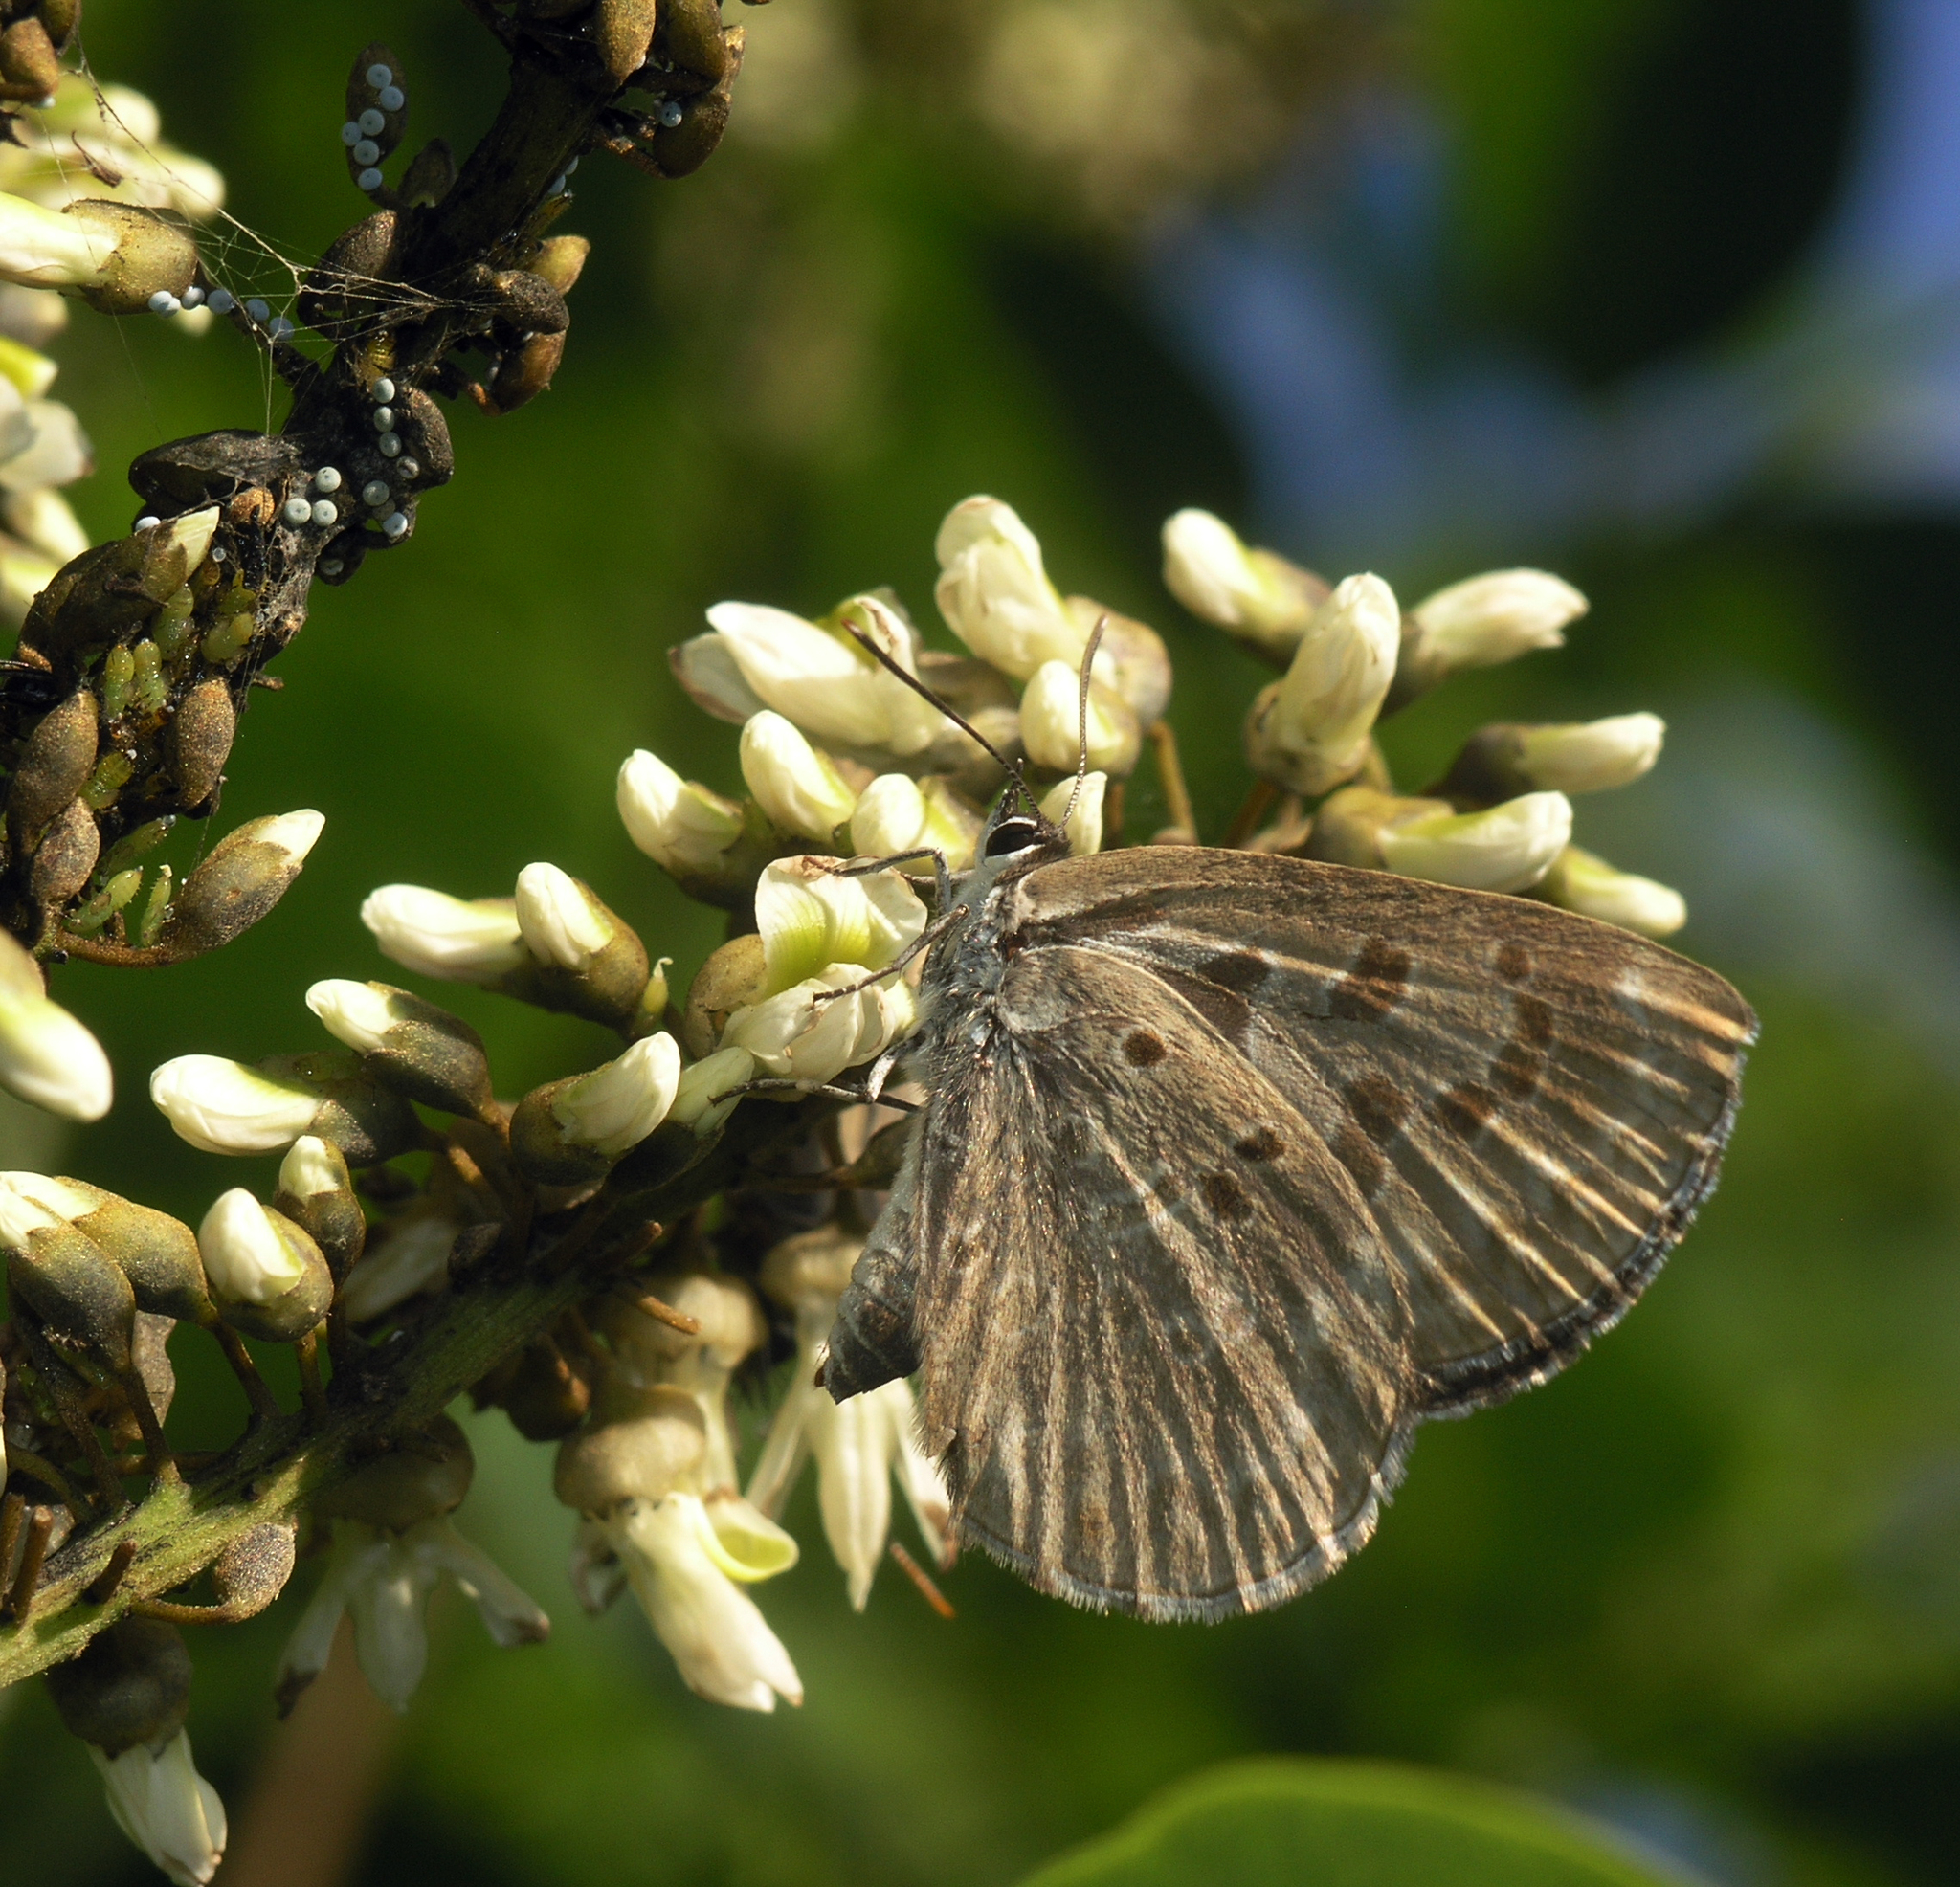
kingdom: Animalia
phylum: Arthropoda
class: Insecta
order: Lepidoptera
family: Lycaenidae
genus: Niphanda
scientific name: Niphanda fusca
